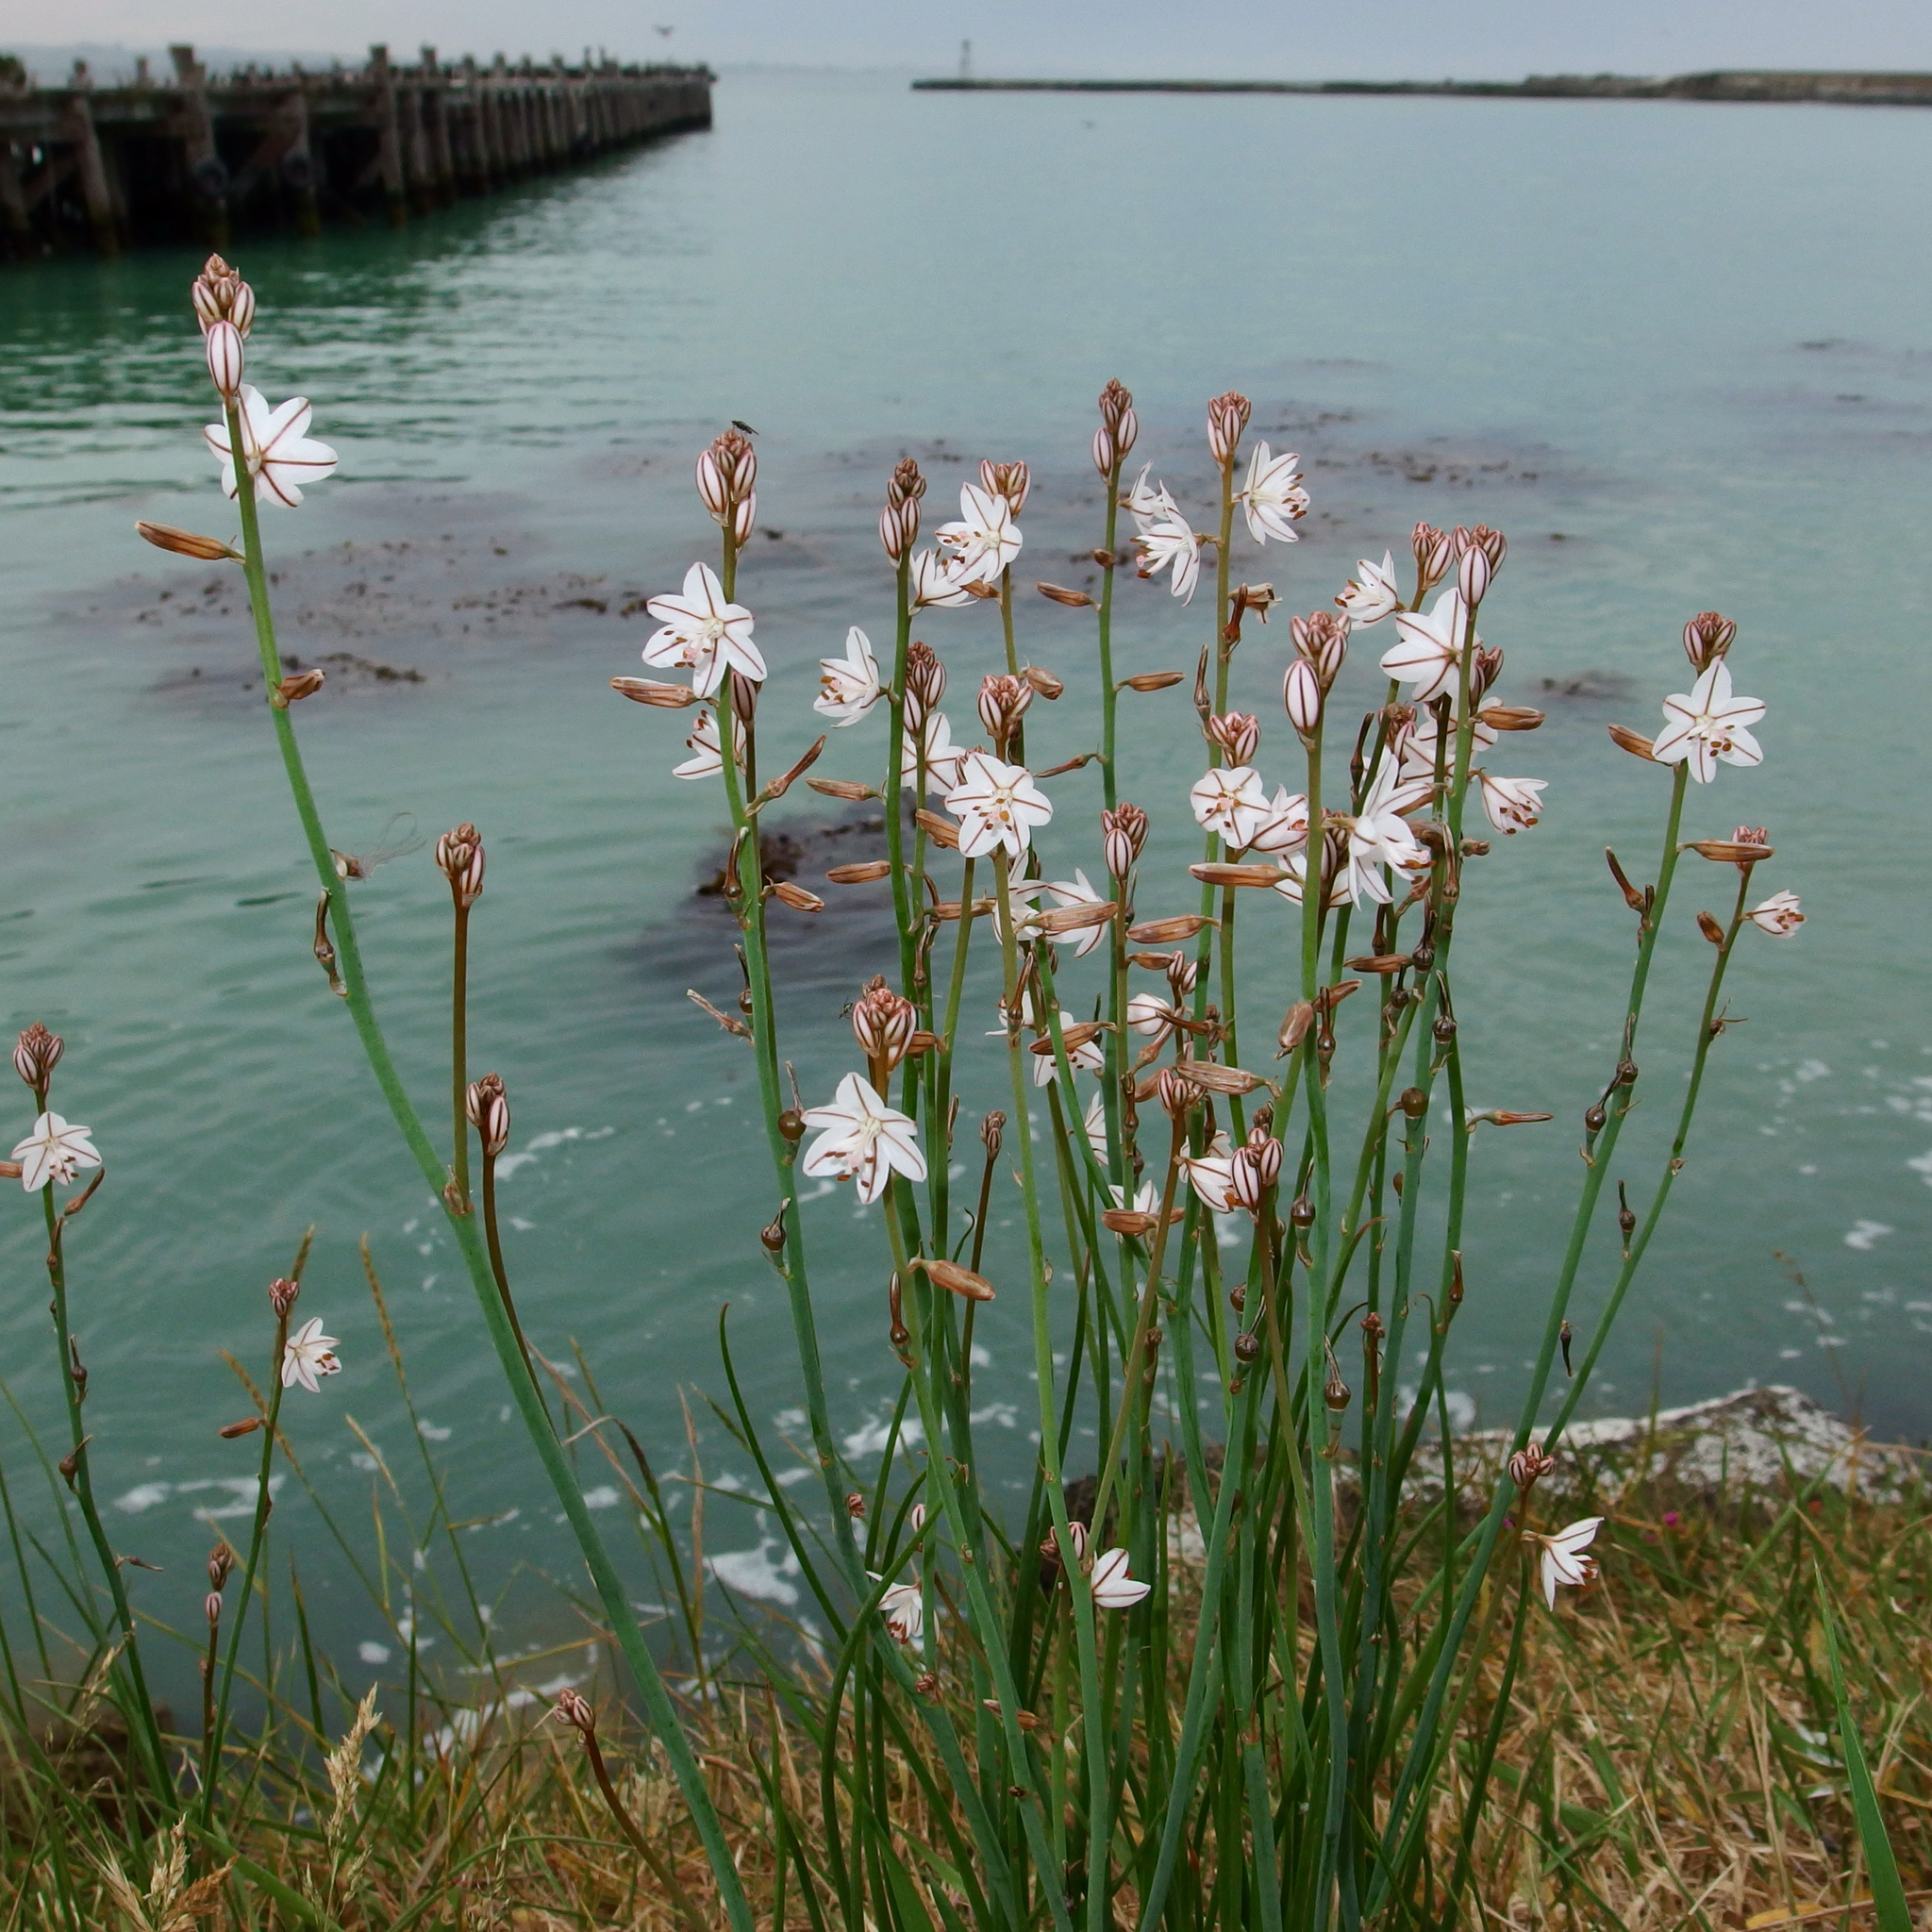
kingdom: Plantae
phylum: Tracheophyta
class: Liliopsida
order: Asparagales
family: Asphodelaceae
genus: Asphodelus
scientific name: Asphodelus fistulosus
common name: Onionweed
